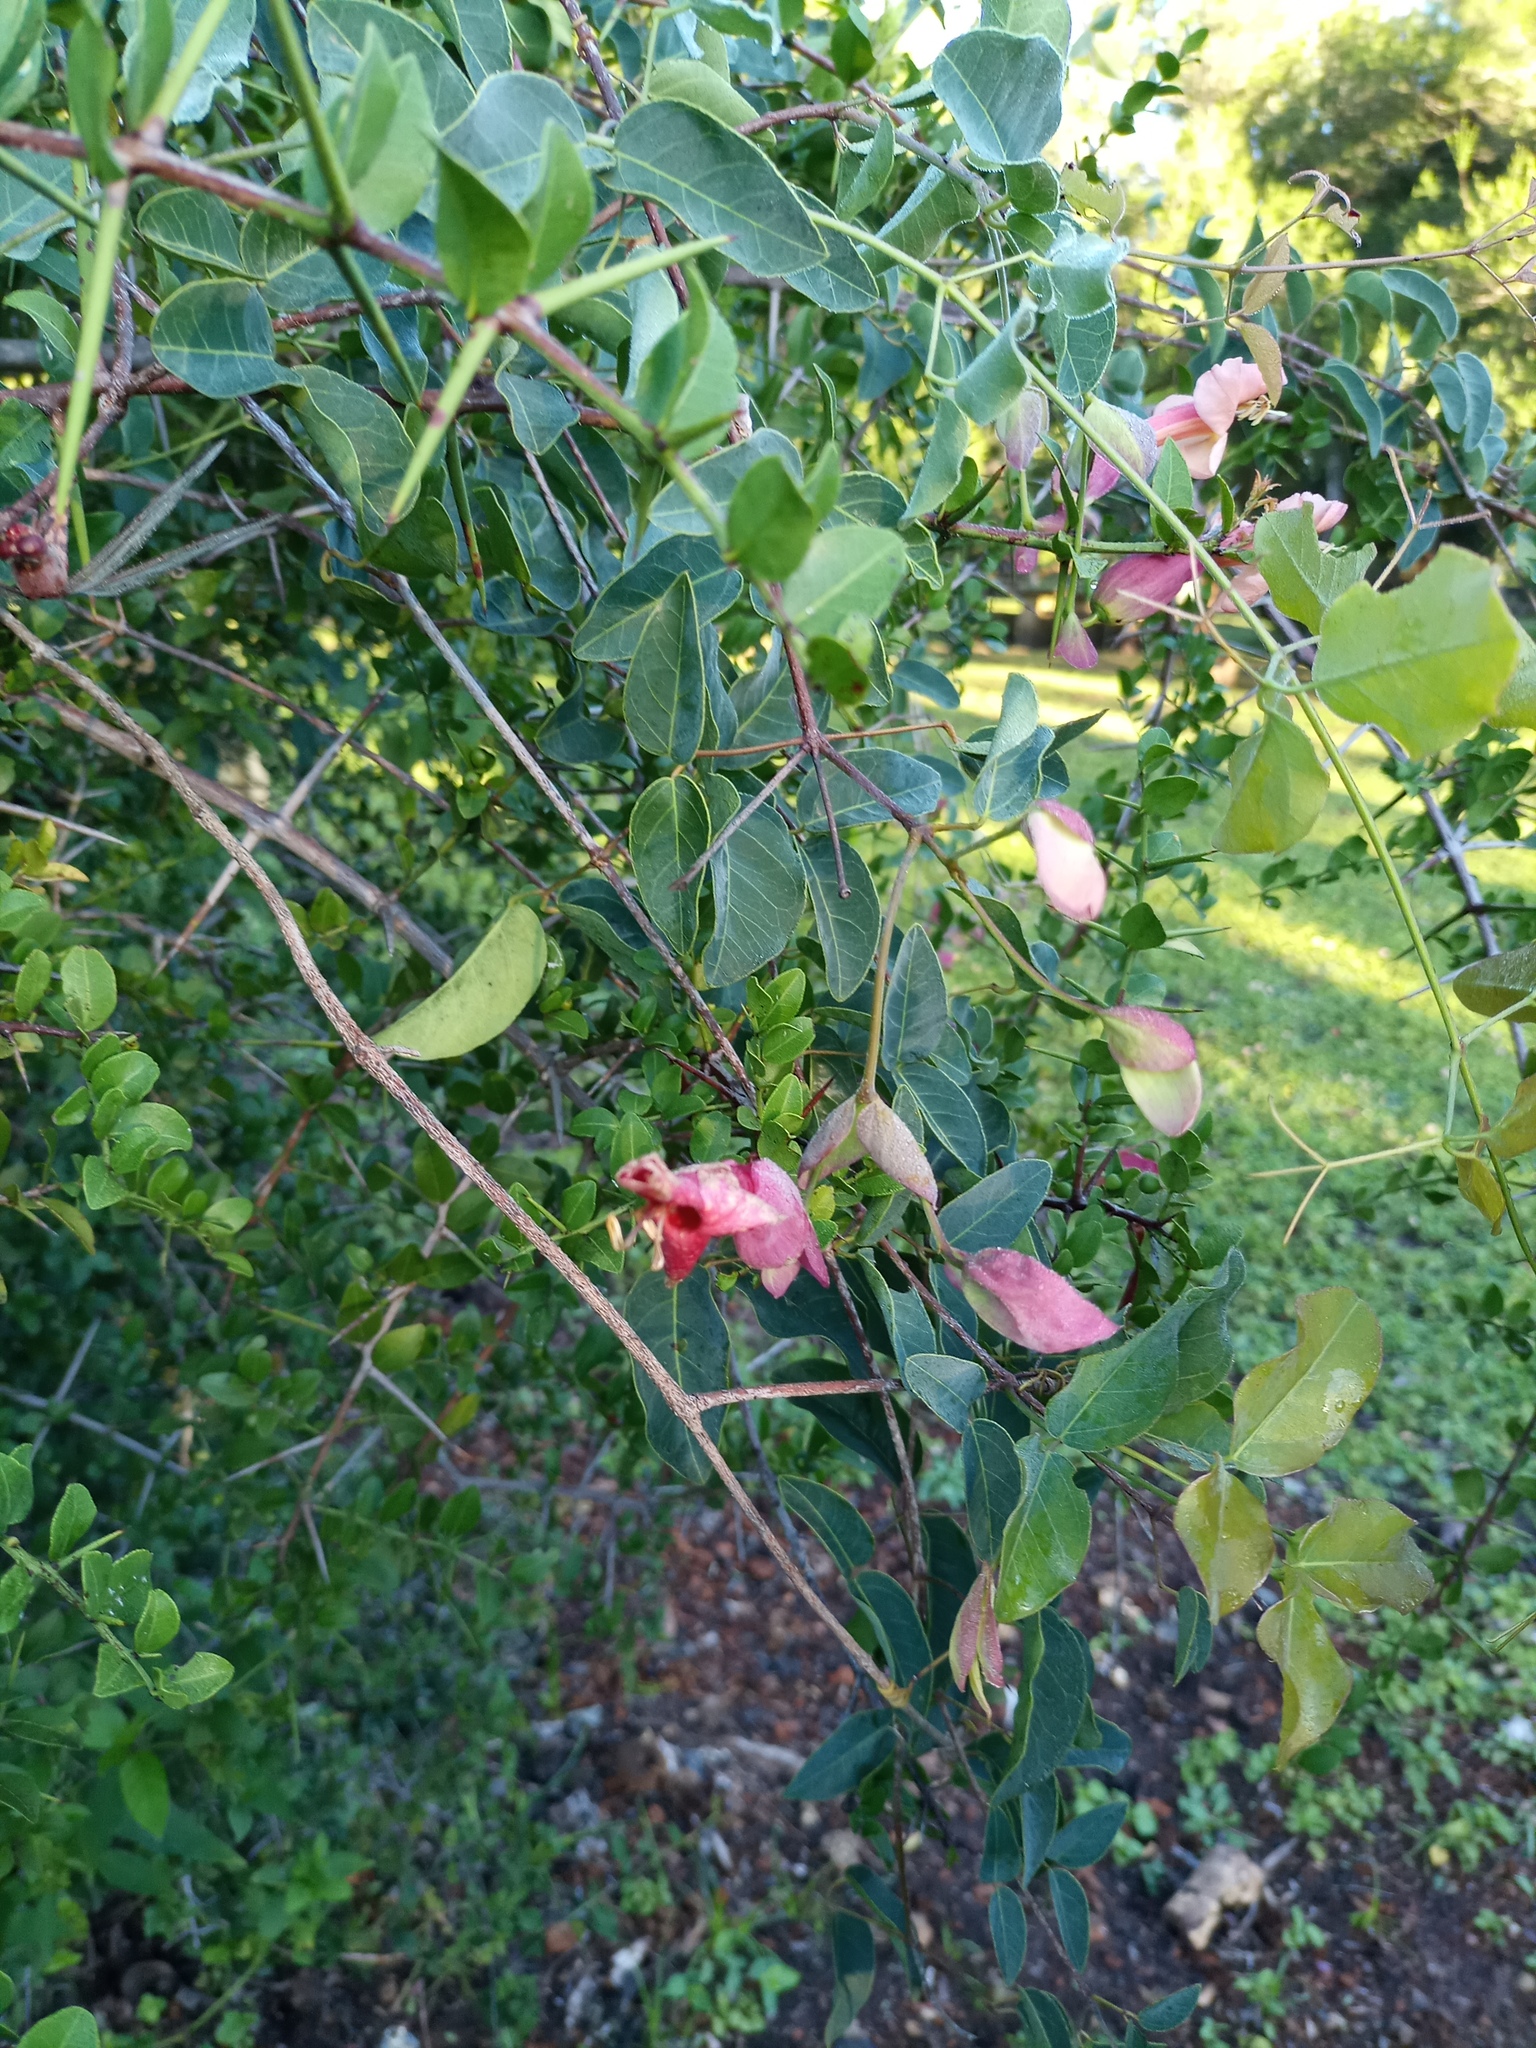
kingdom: Plantae
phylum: Tracheophyta
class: Magnoliopsida
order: Lamiales
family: Bignoniaceae
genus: Dolichandra
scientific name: Dolichandra cynanchoides
